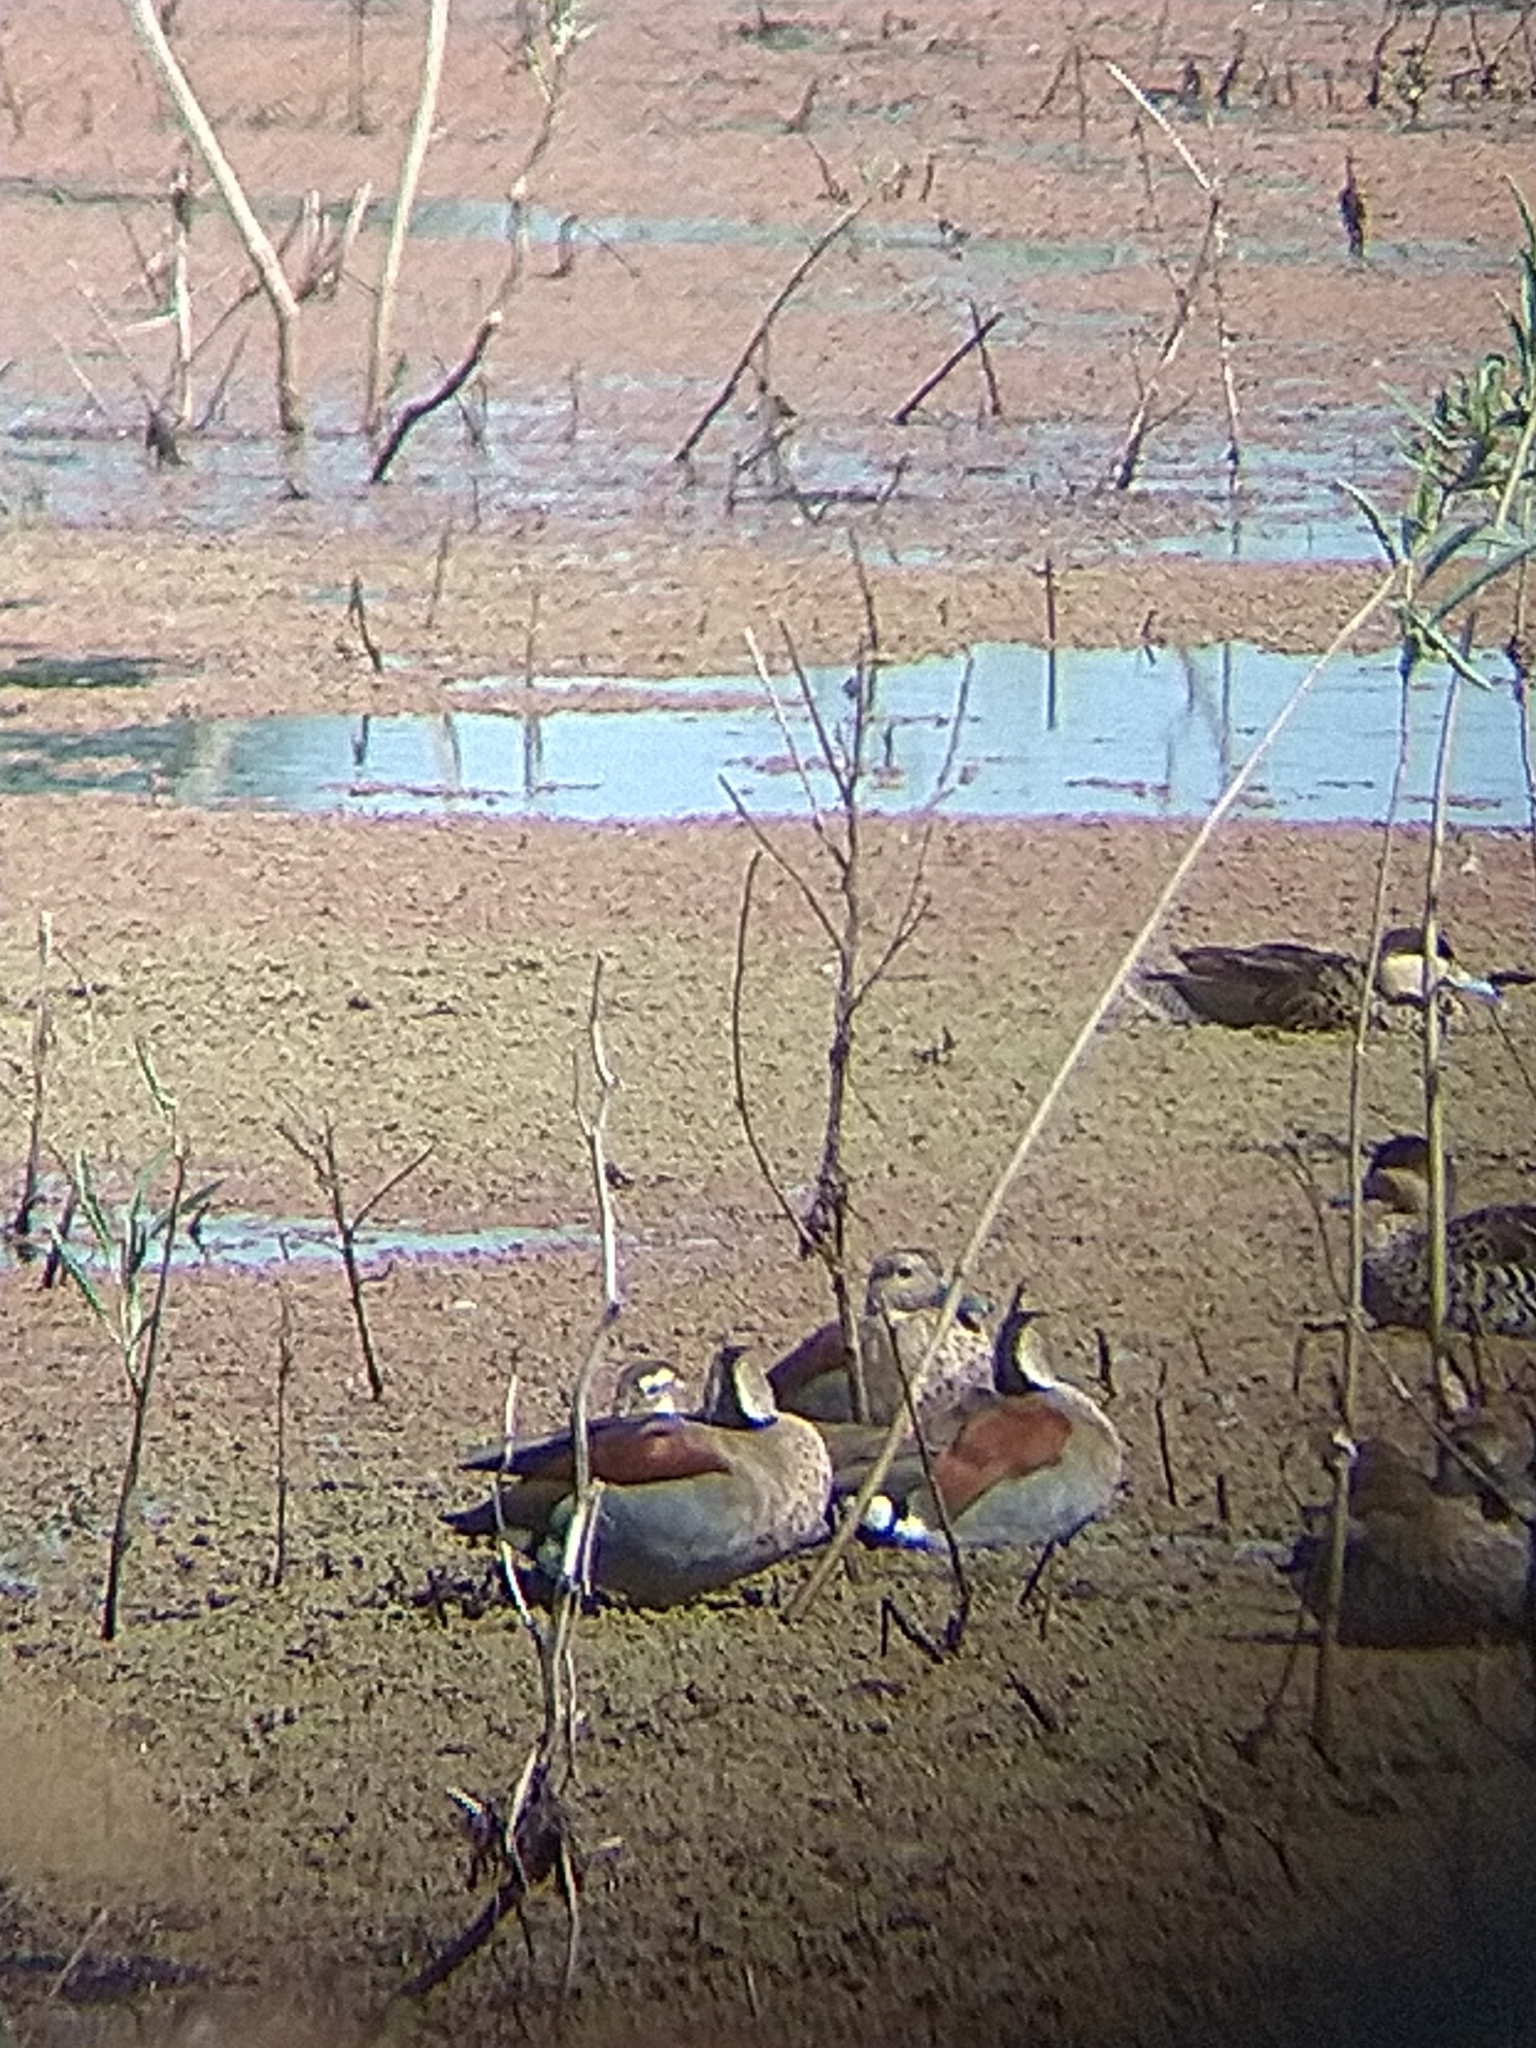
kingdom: Animalia
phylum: Chordata
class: Aves
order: Anseriformes
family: Anatidae
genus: Callonetta
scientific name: Callonetta leucophrys
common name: Ringed teal
